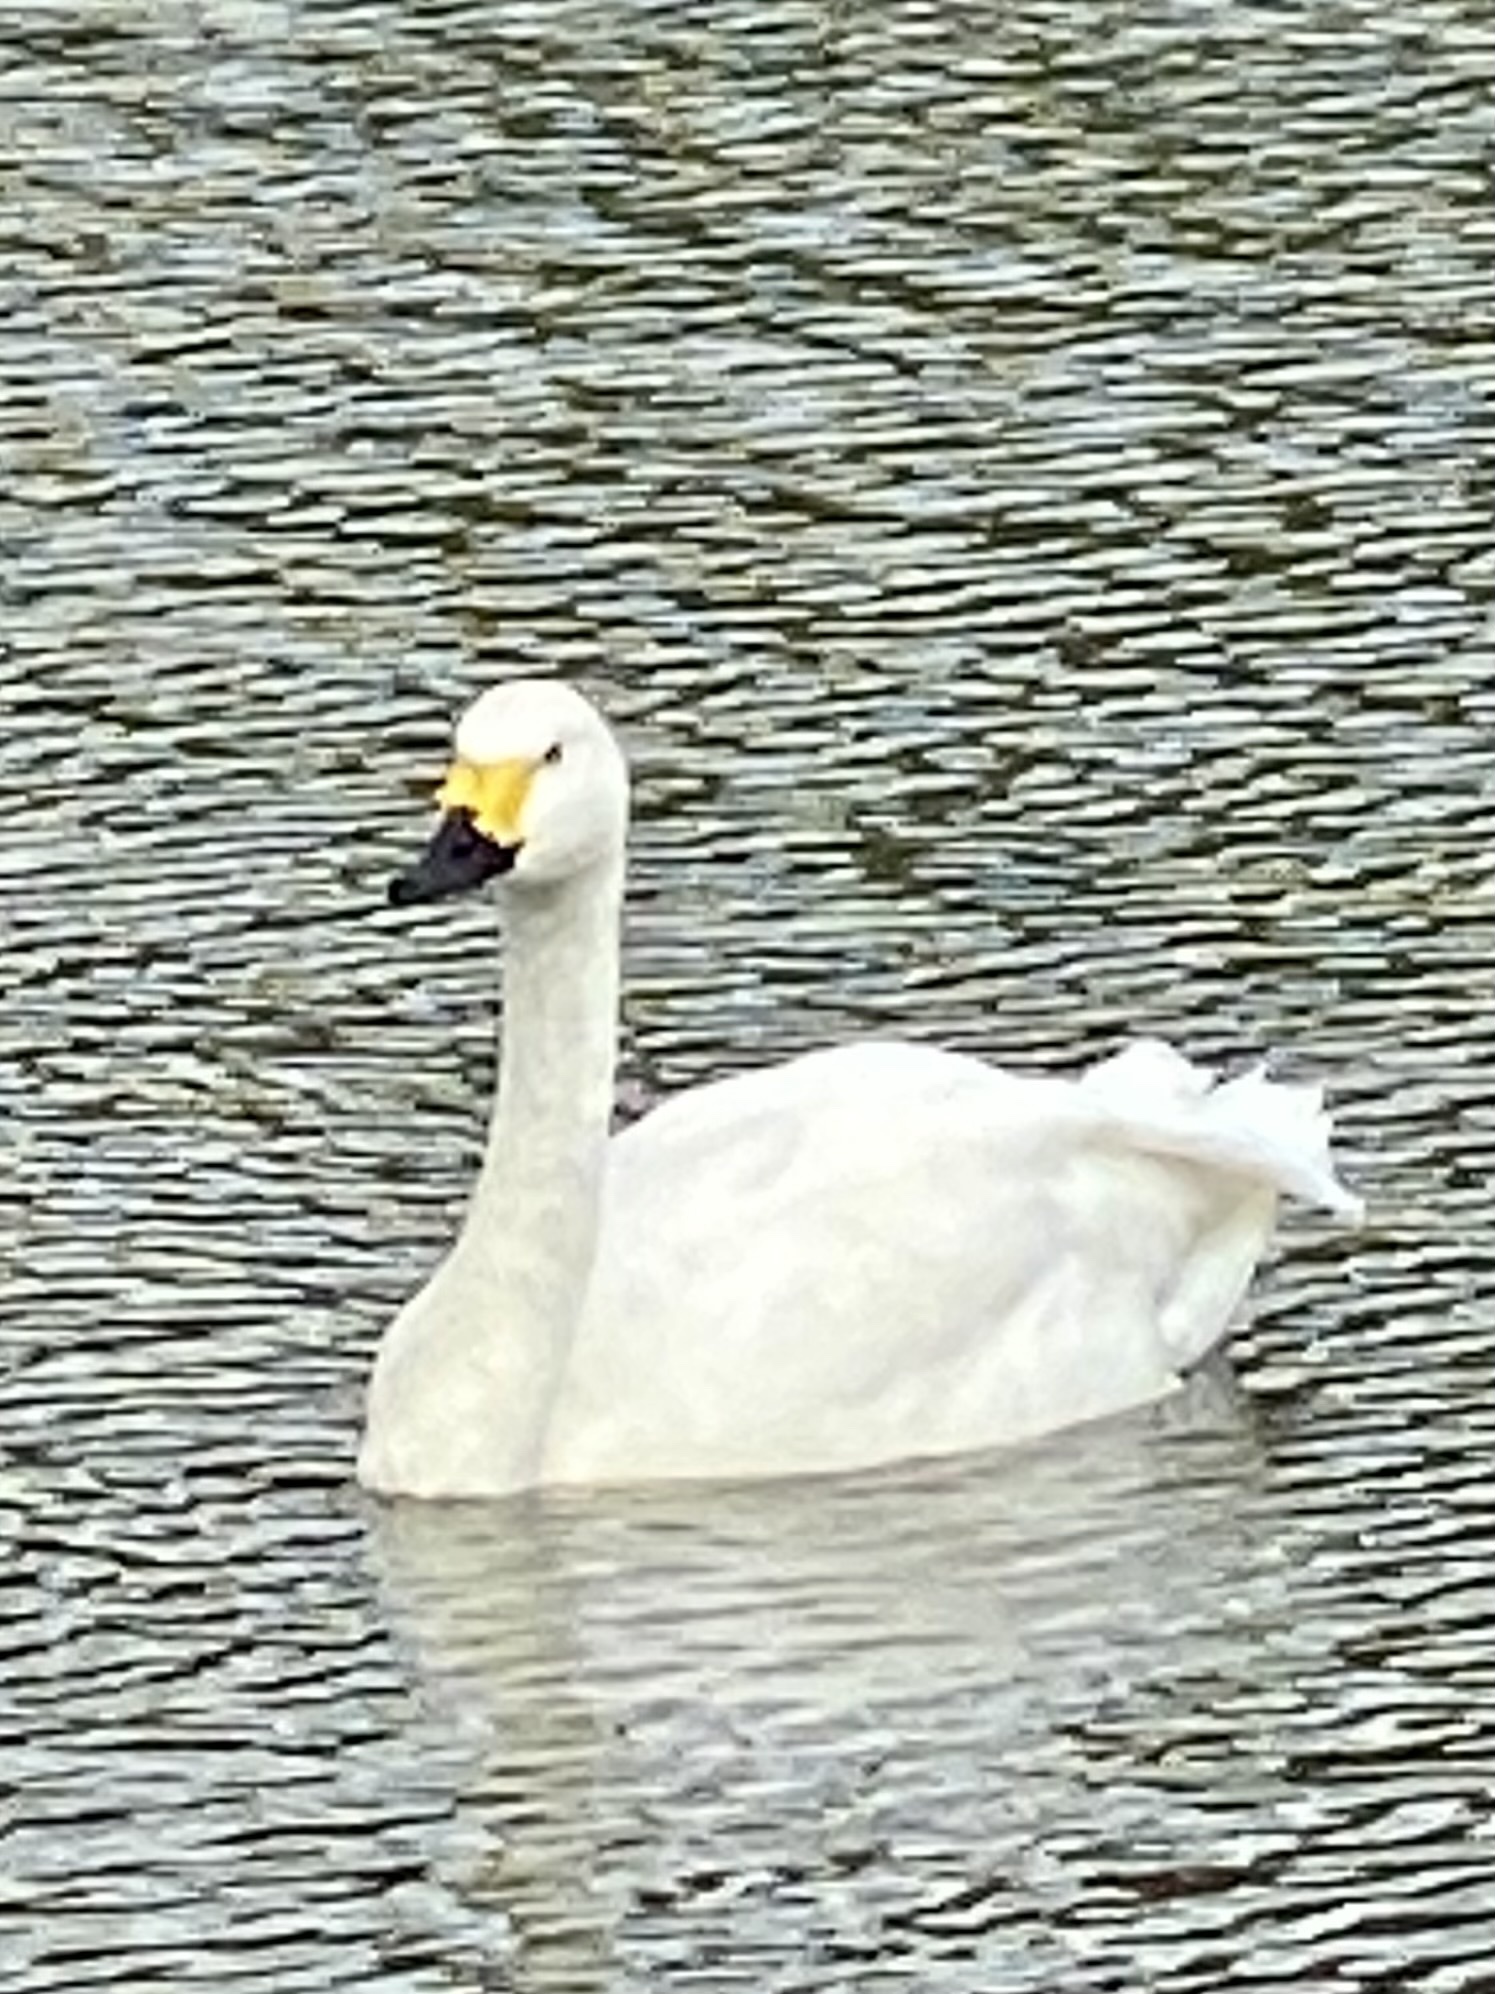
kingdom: Animalia
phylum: Chordata
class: Aves
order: Anseriformes
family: Anatidae
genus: Cygnus
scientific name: Cygnus columbianus
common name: Tundra swan
